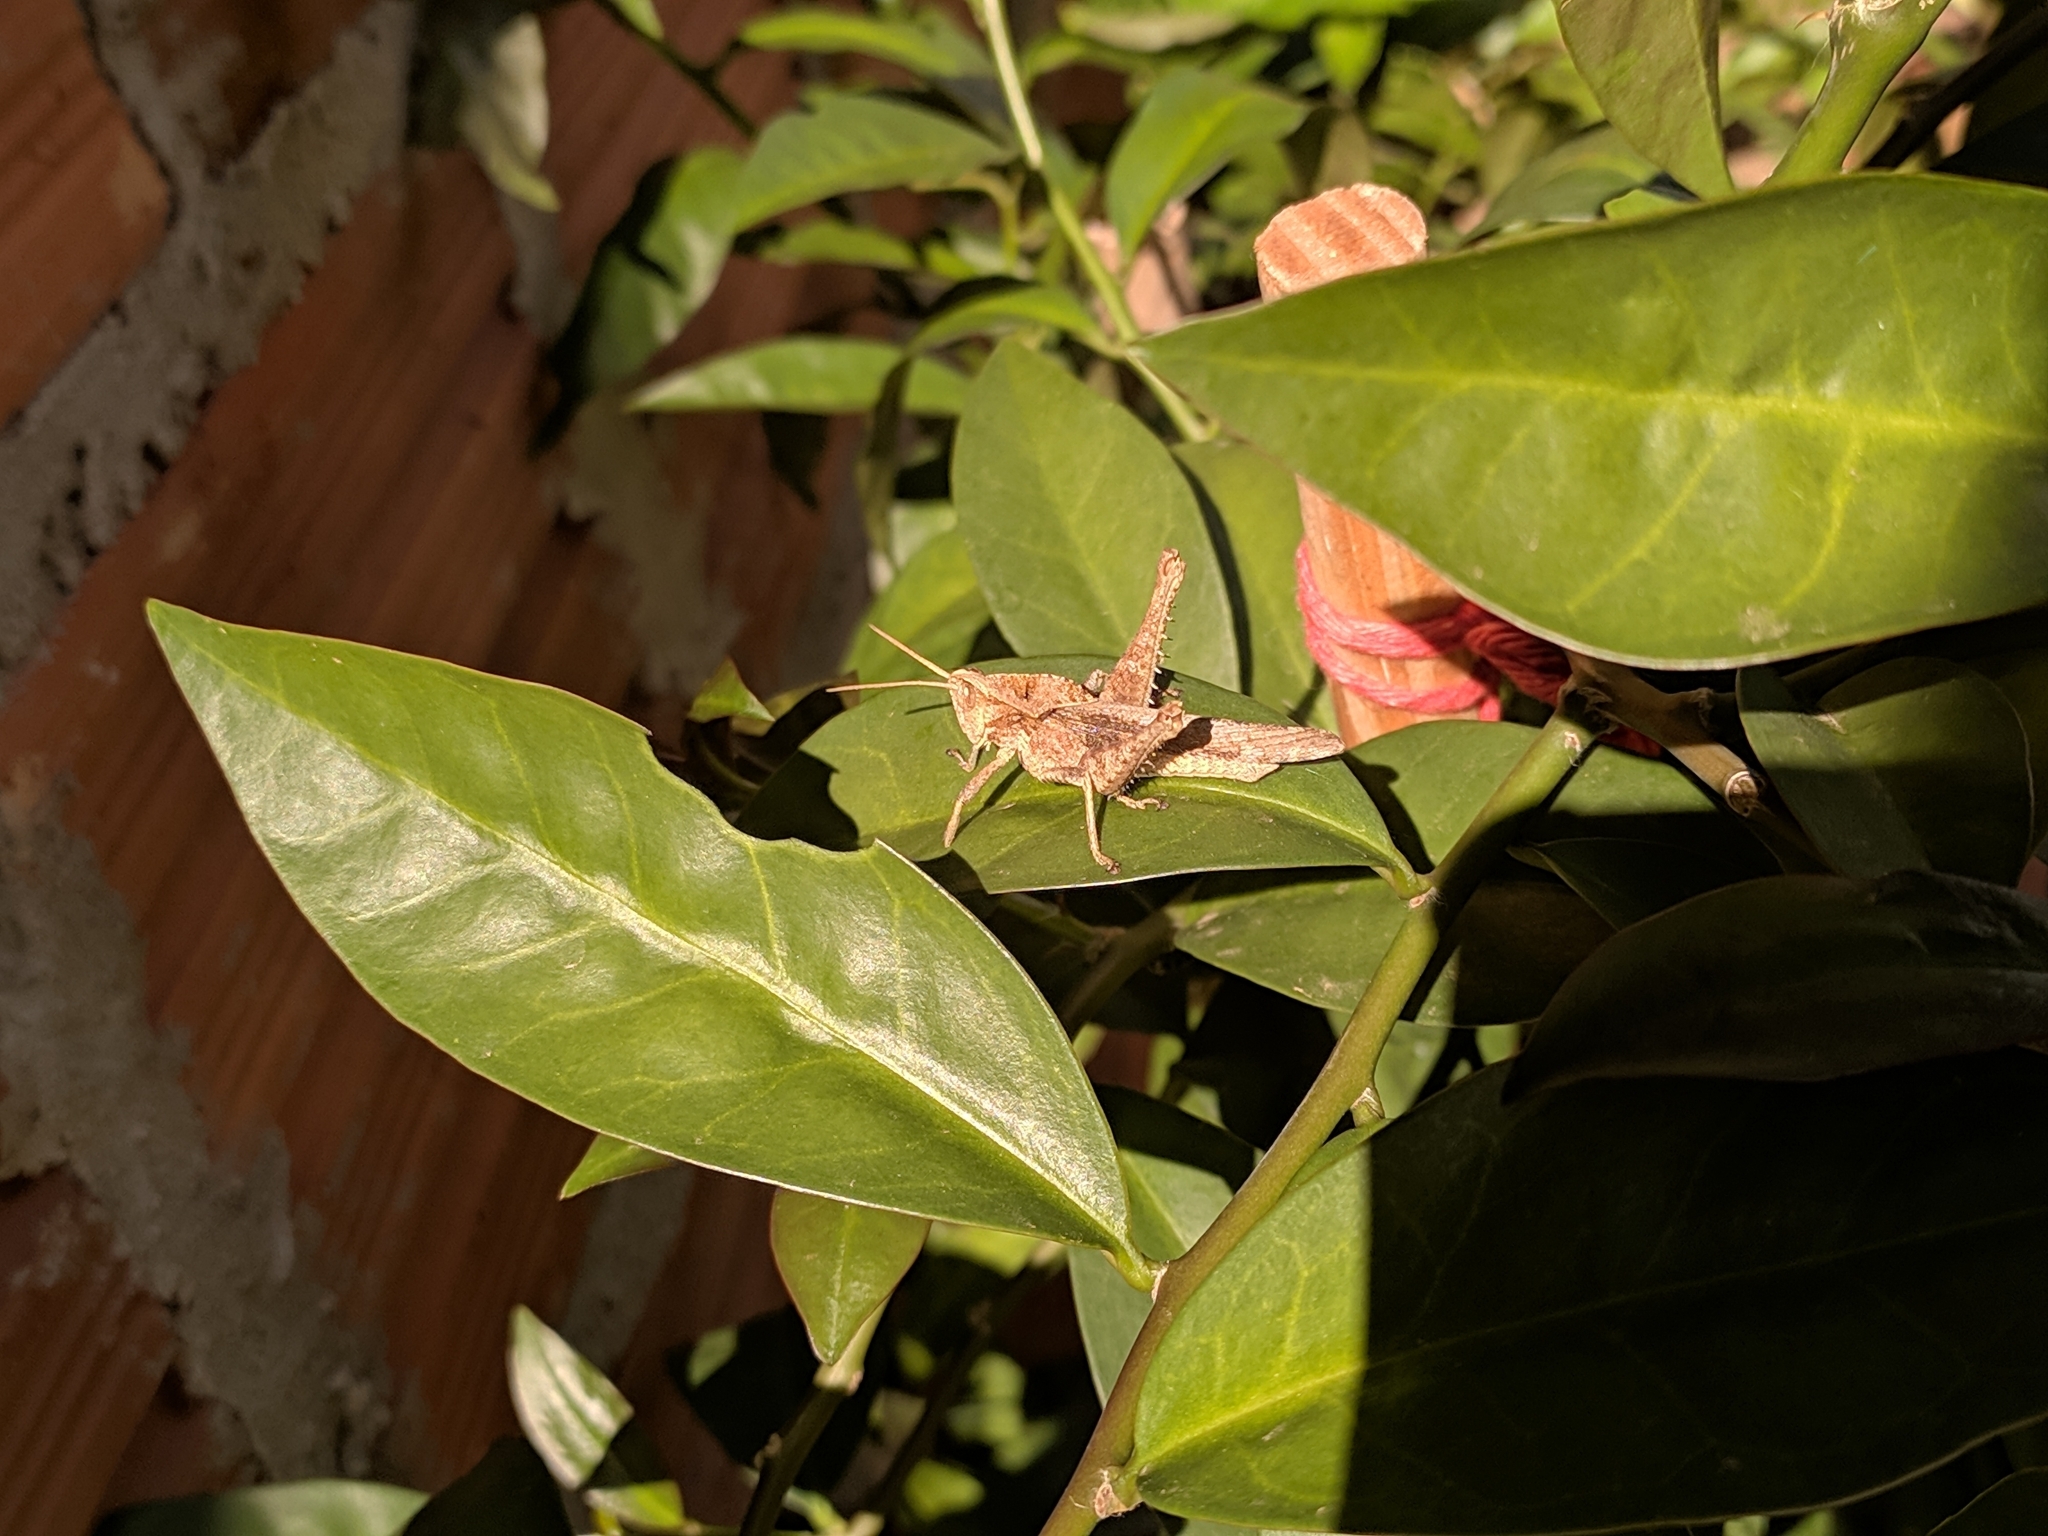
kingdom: Animalia
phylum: Arthropoda
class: Insecta
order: Orthoptera
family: Romaleidae
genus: Xyleus
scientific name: Xyleus discoideus
